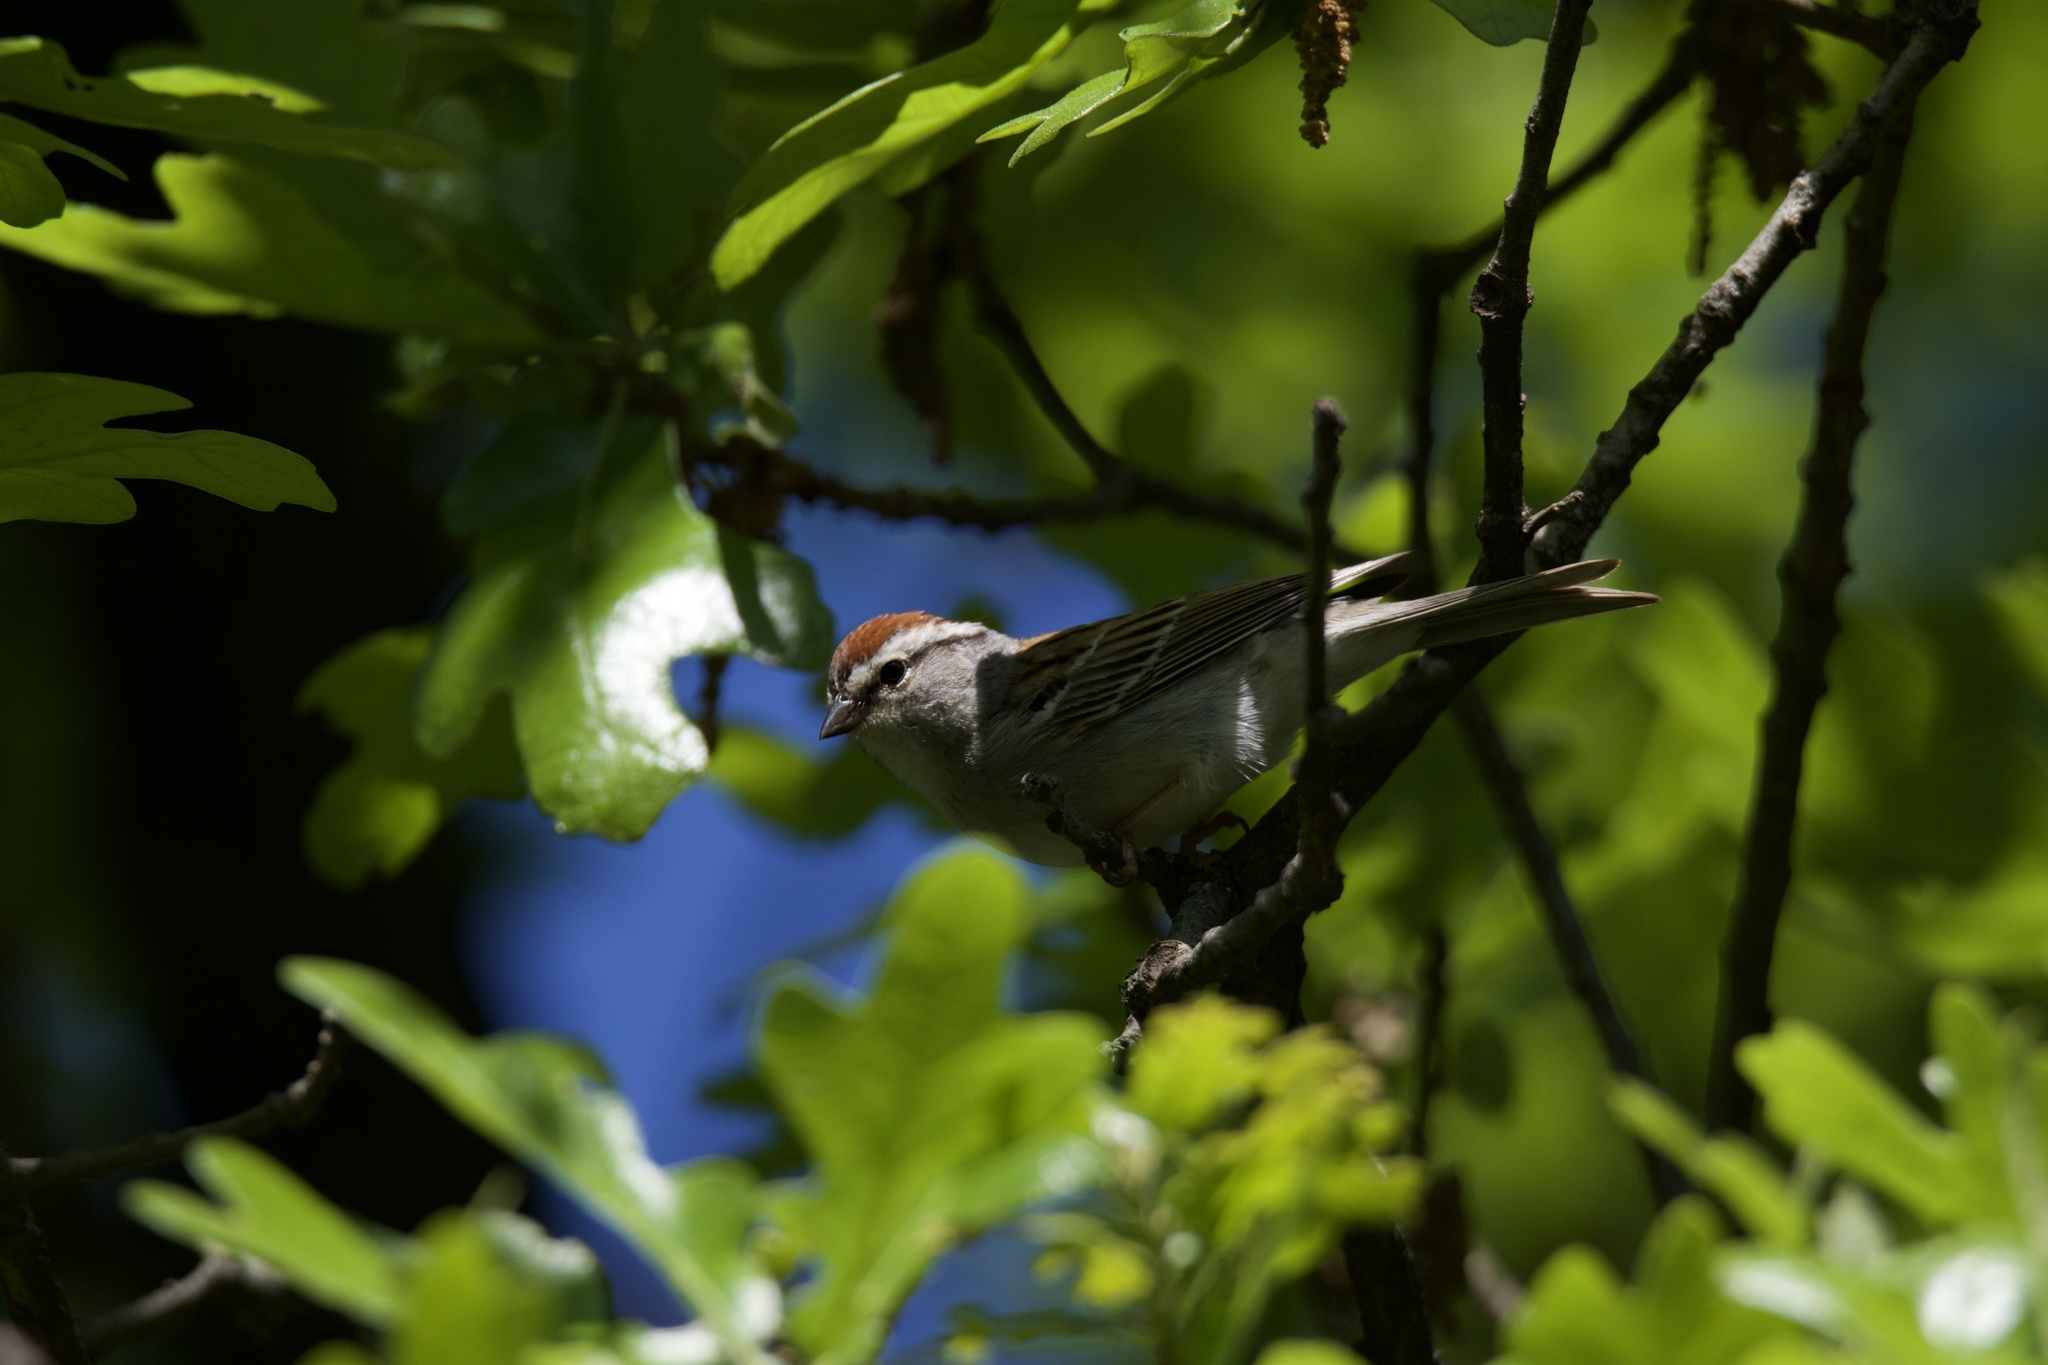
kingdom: Animalia
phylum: Chordata
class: Aves
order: Passeriformes
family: Passerellidae
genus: Spizella
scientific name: Spizella passerina
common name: Chipping sparrow
